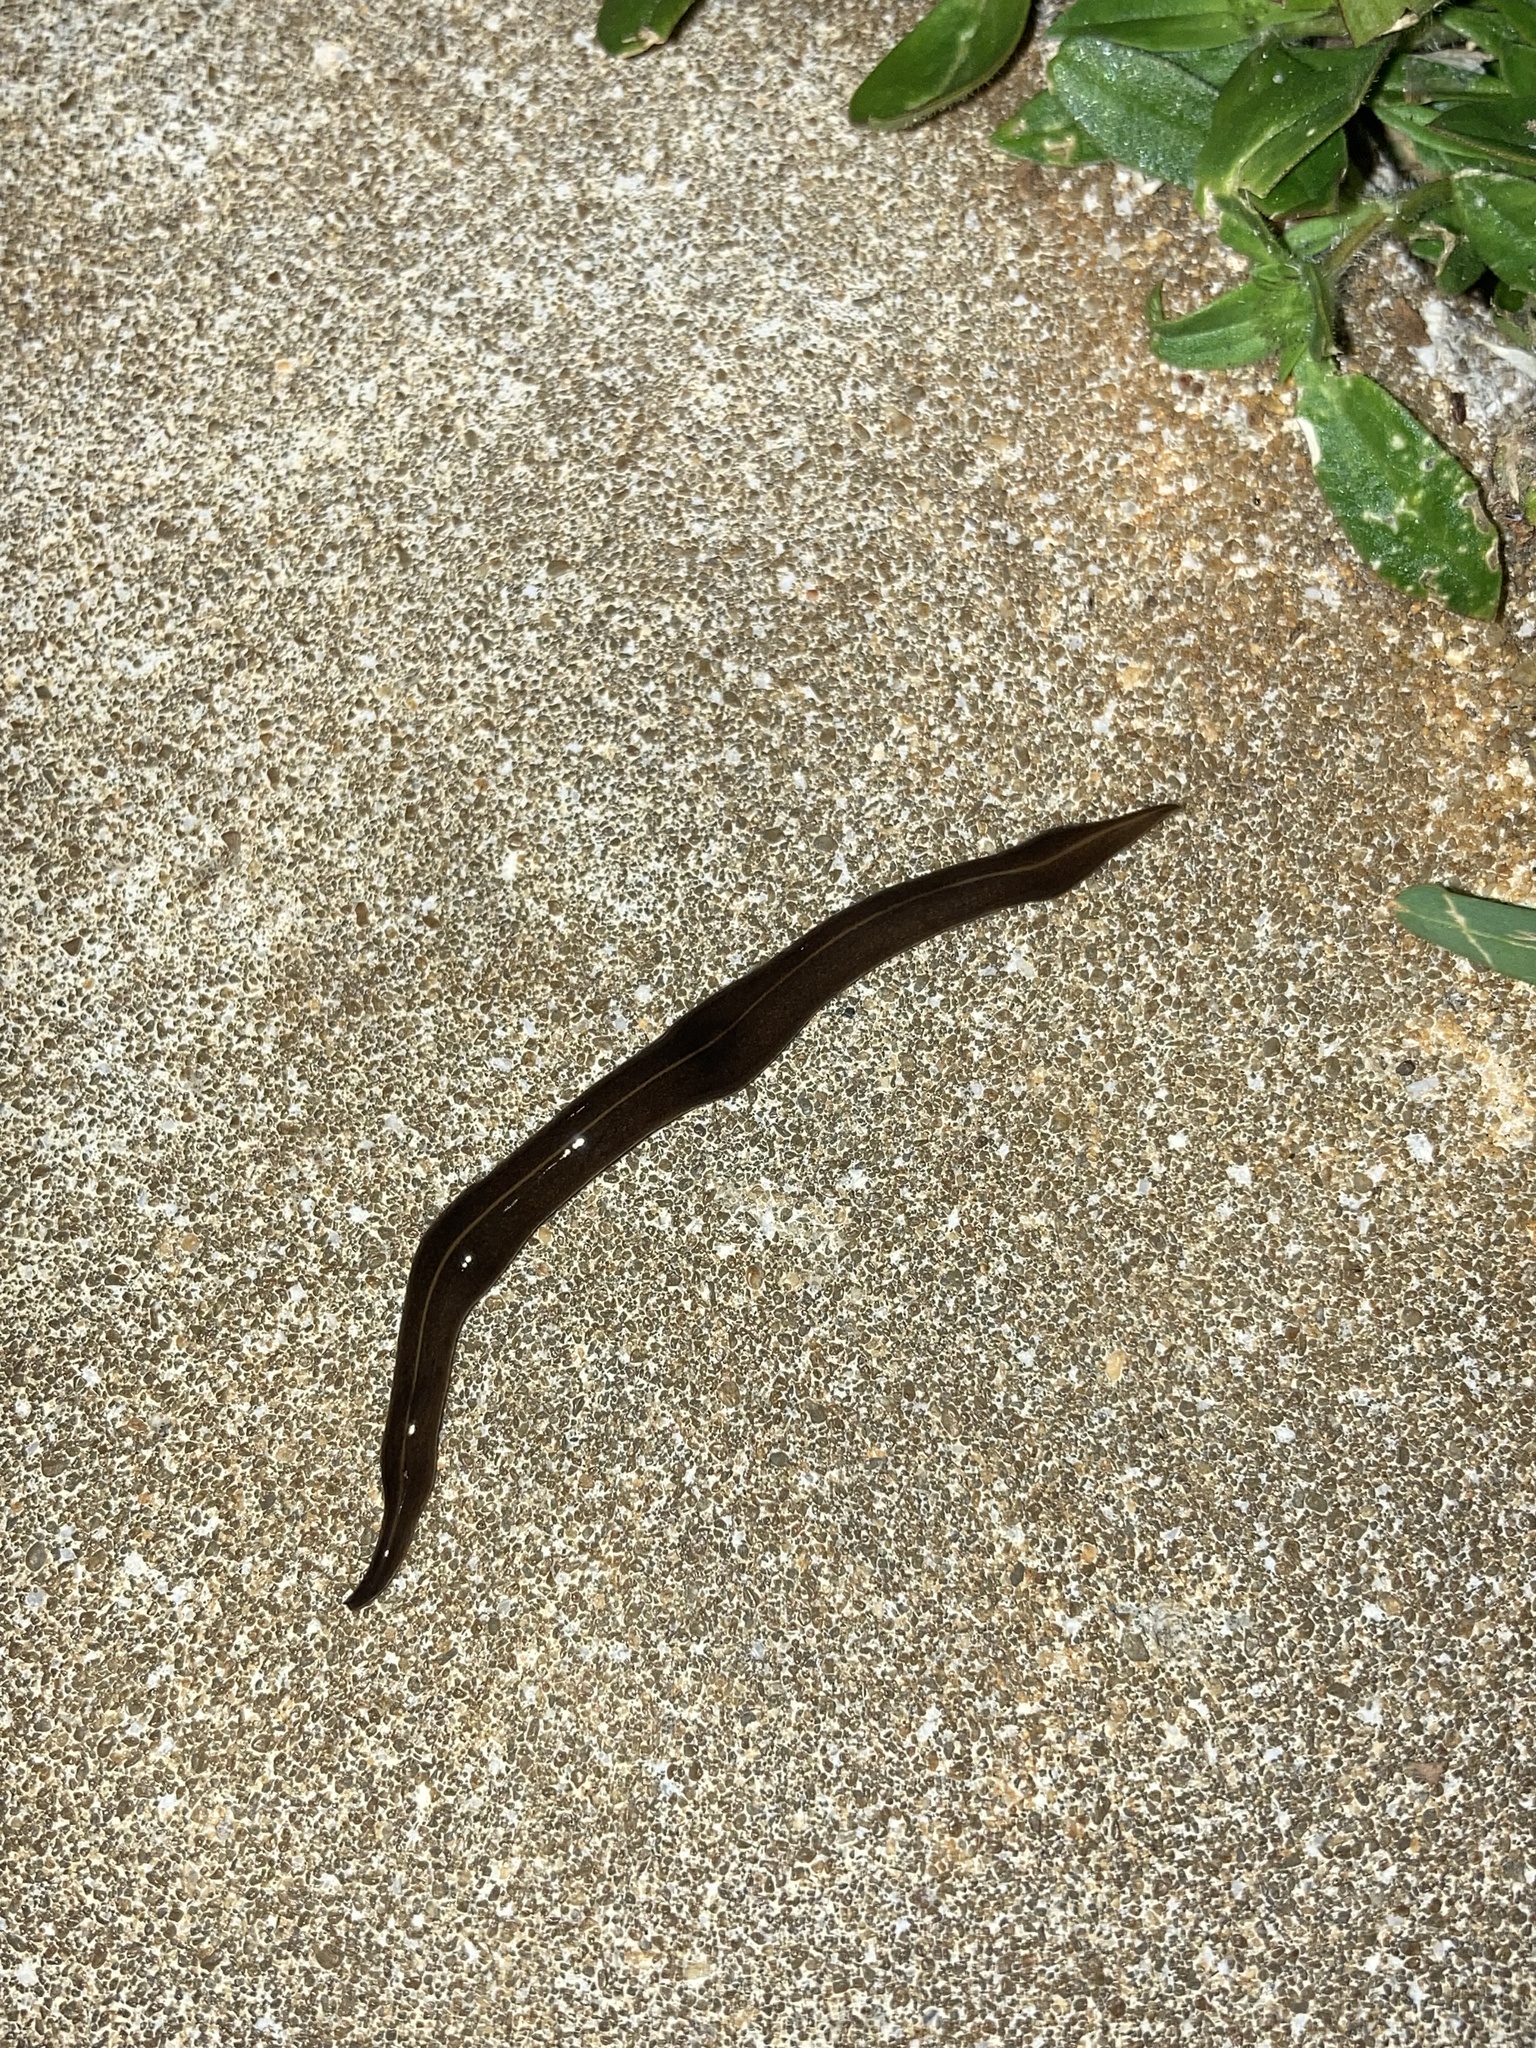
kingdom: Animalia
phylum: Platyhelminthes
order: Tricladida
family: Geoplanidae
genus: Platydemus
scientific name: Platydemus manokwari
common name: New guinea flatworm
